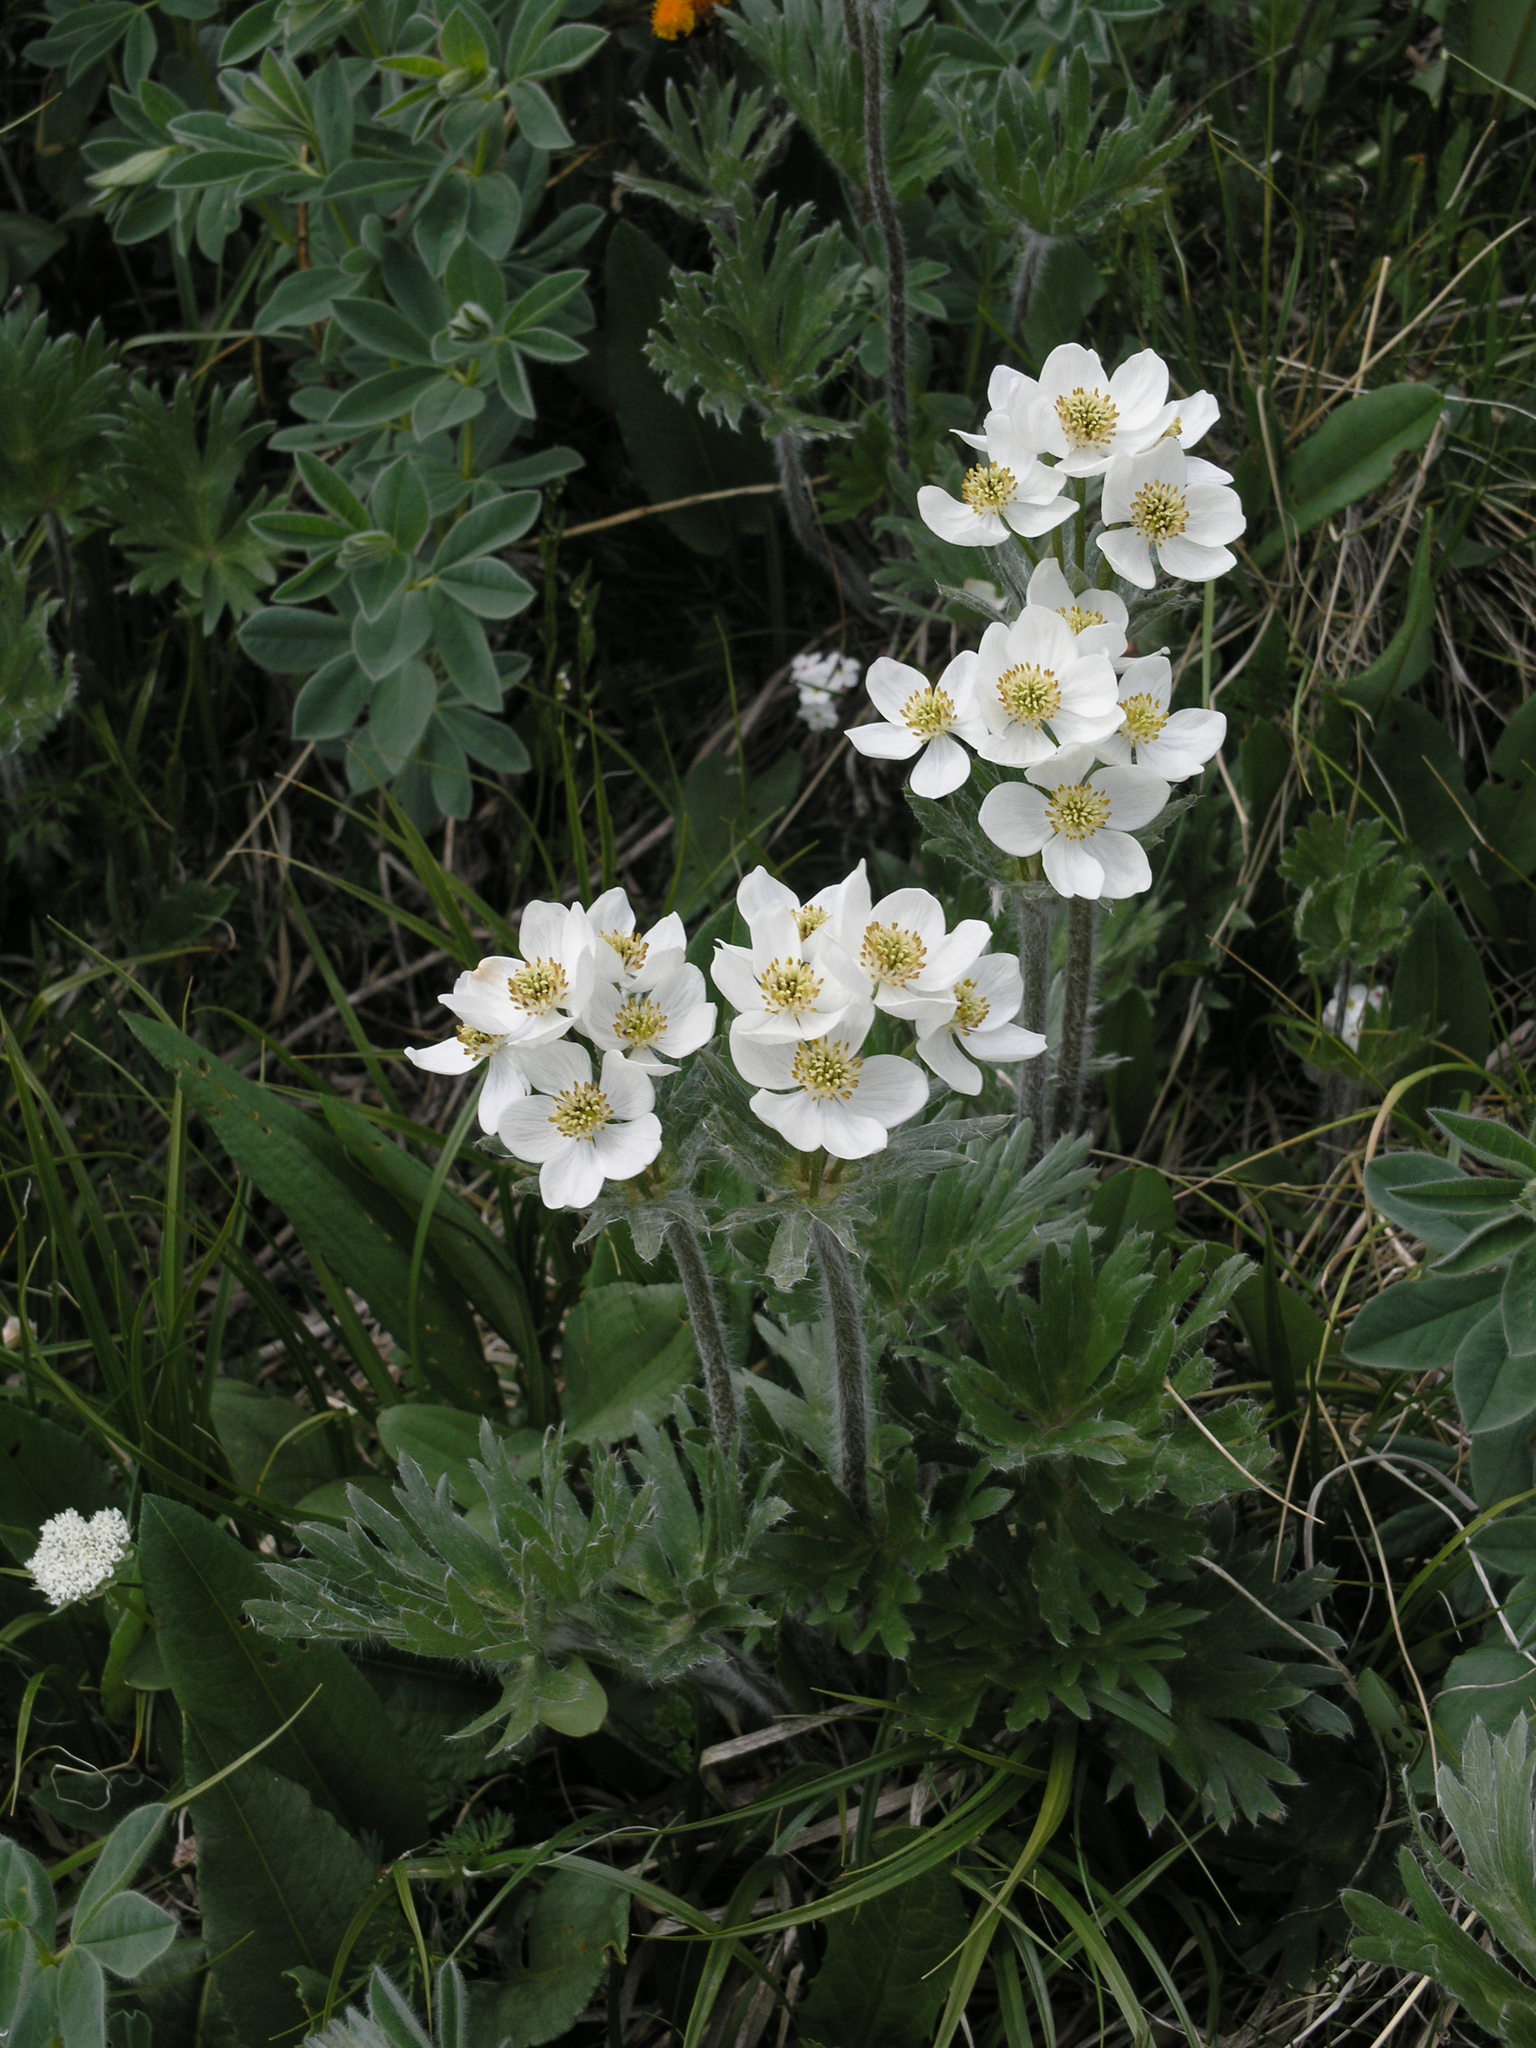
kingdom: Plantae
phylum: Tracheophyta
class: Magnoliopsida
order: Ranunculales
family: Ranunculaceae
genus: Anemonastrum
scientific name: Anemonastrum narcissiflorum
